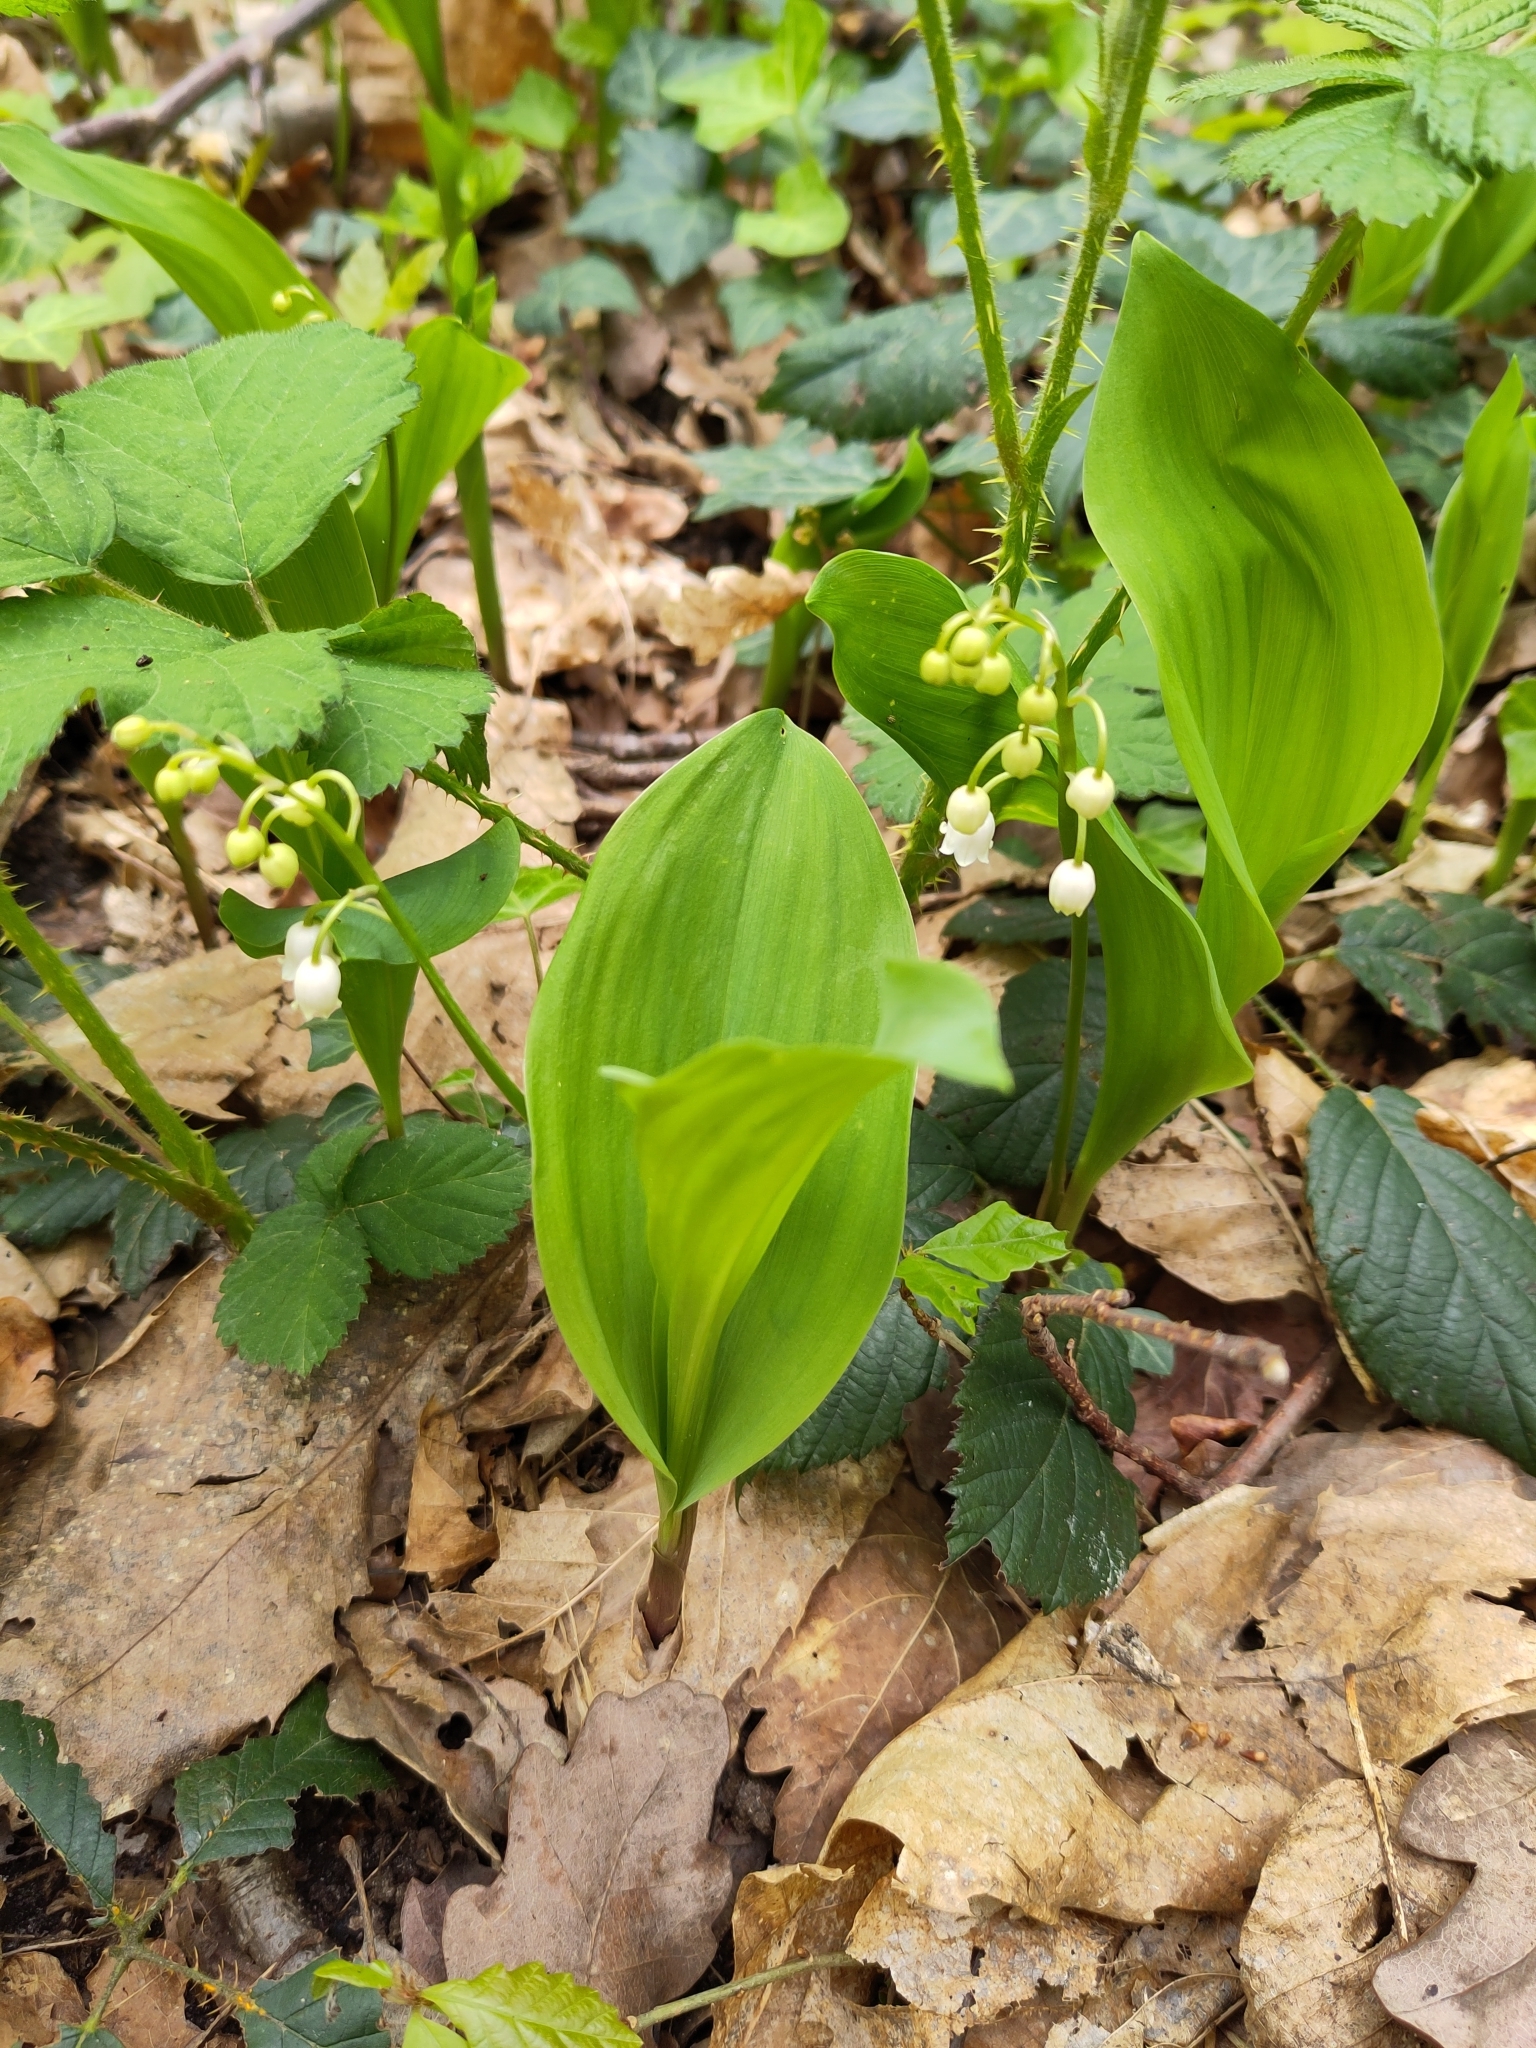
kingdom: Plantae
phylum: Tracheophyta
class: Liliopsida
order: Asparagales
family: Asparagaceae
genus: Convallaria
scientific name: Convallaria majalis
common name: Lily-of-the-valley
